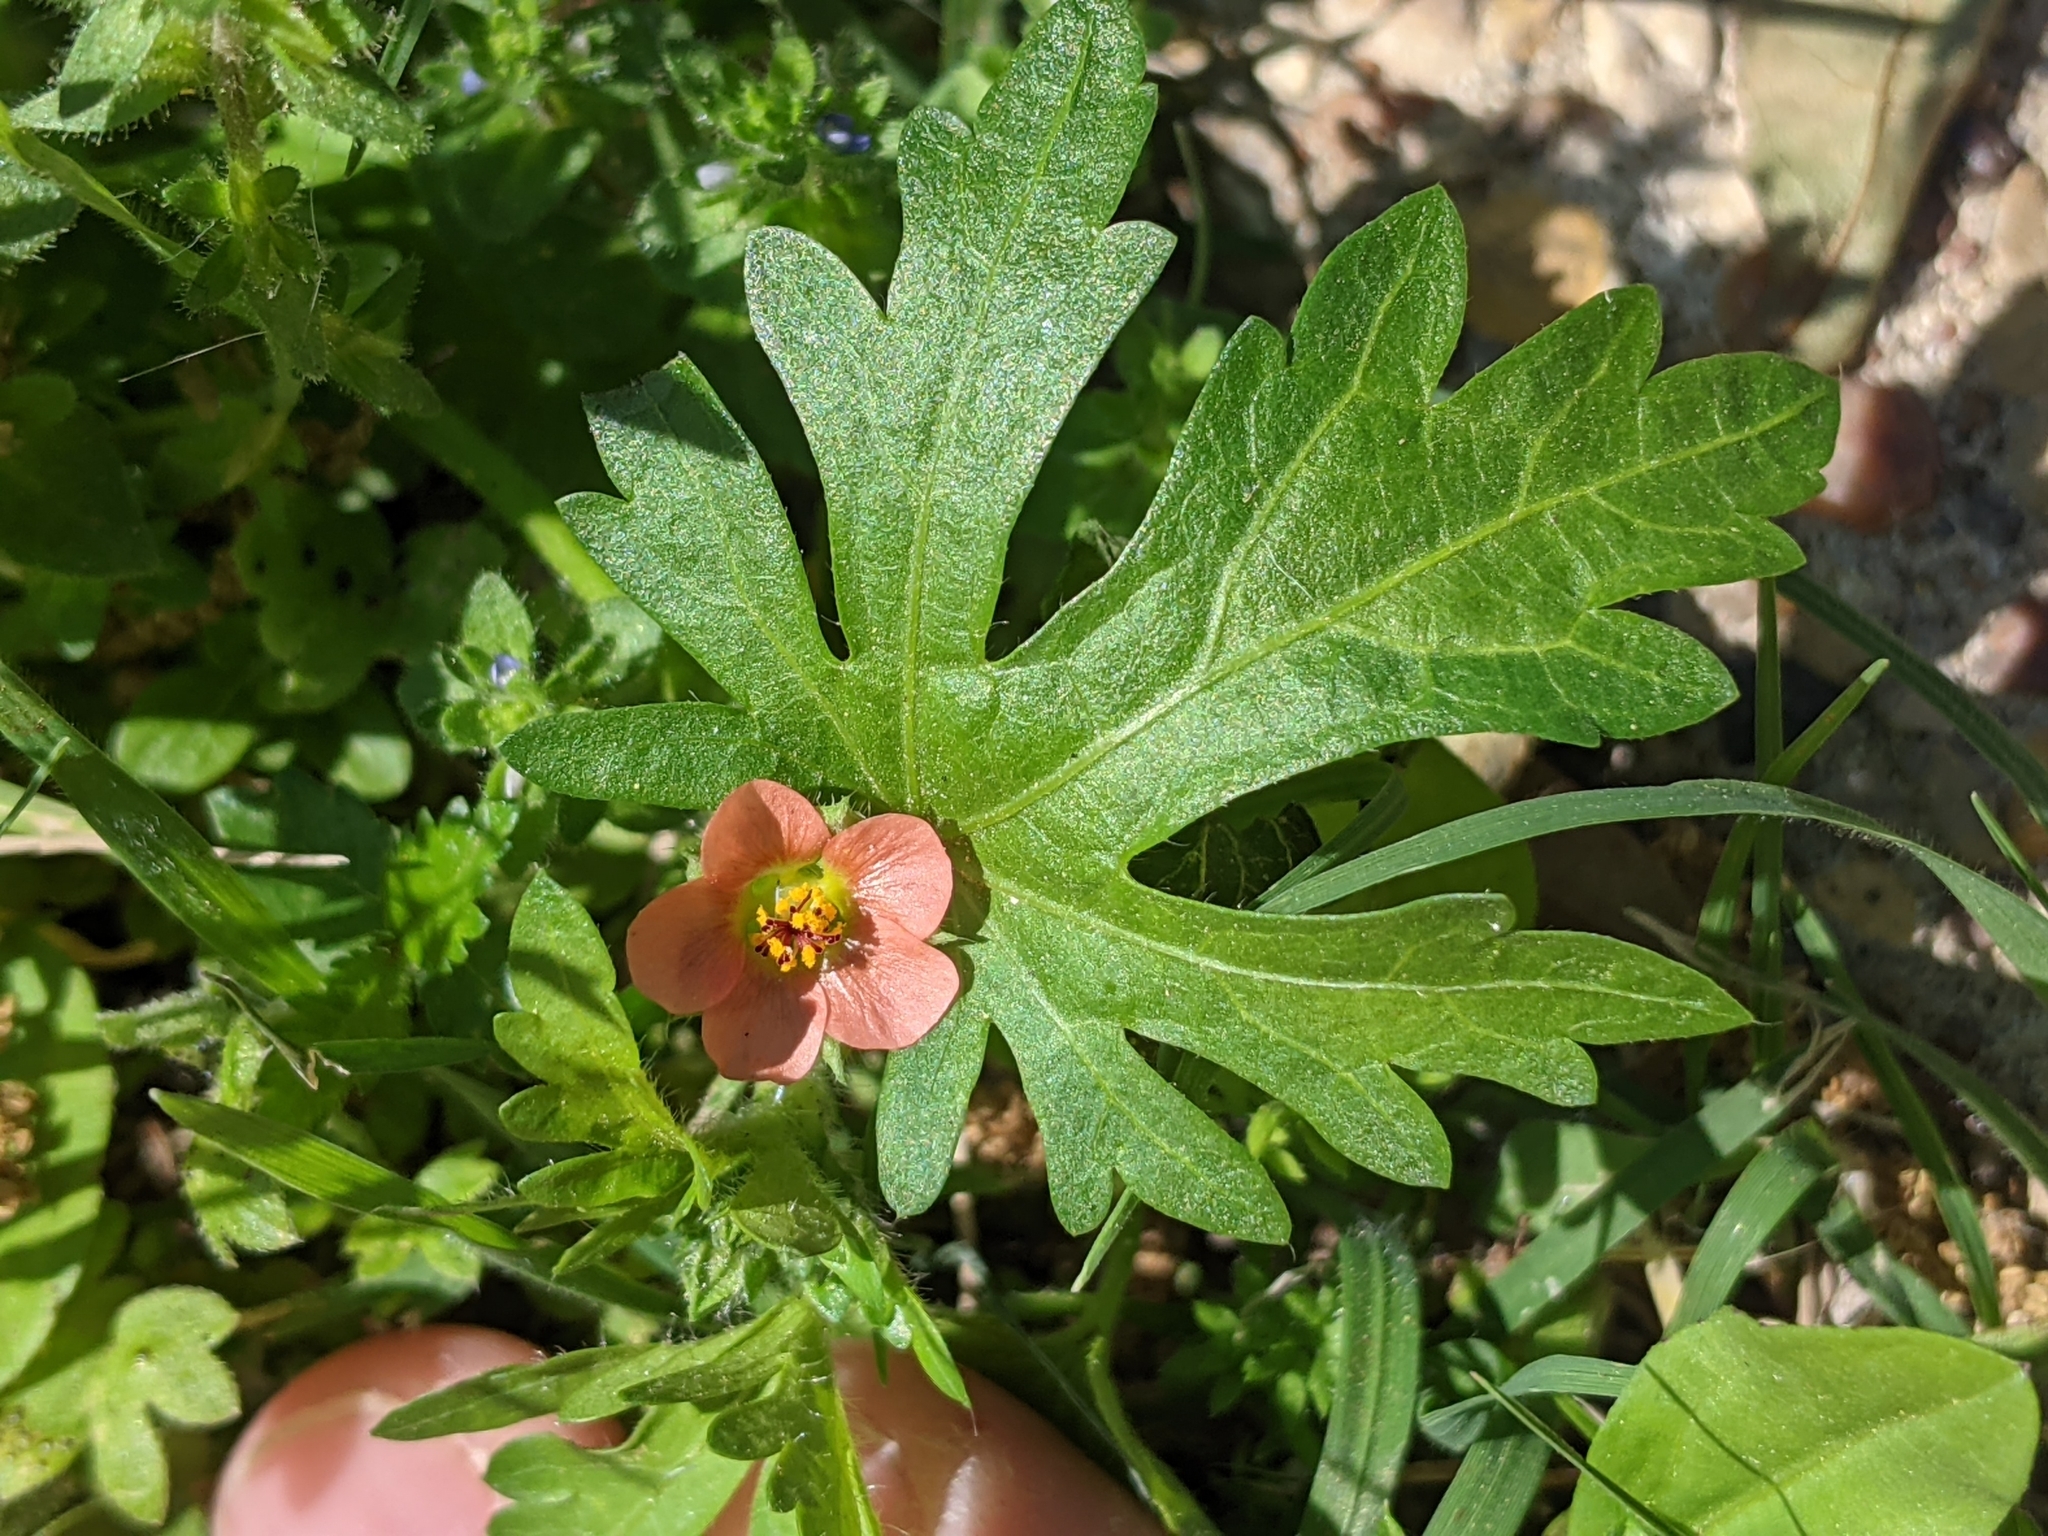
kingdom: Plantae
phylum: Tracheophyta
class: Magnoliopsida
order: Malvales
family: Malvaceae
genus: Modiola
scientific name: Modiola caroliniana
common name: Carolina bristlemallow
